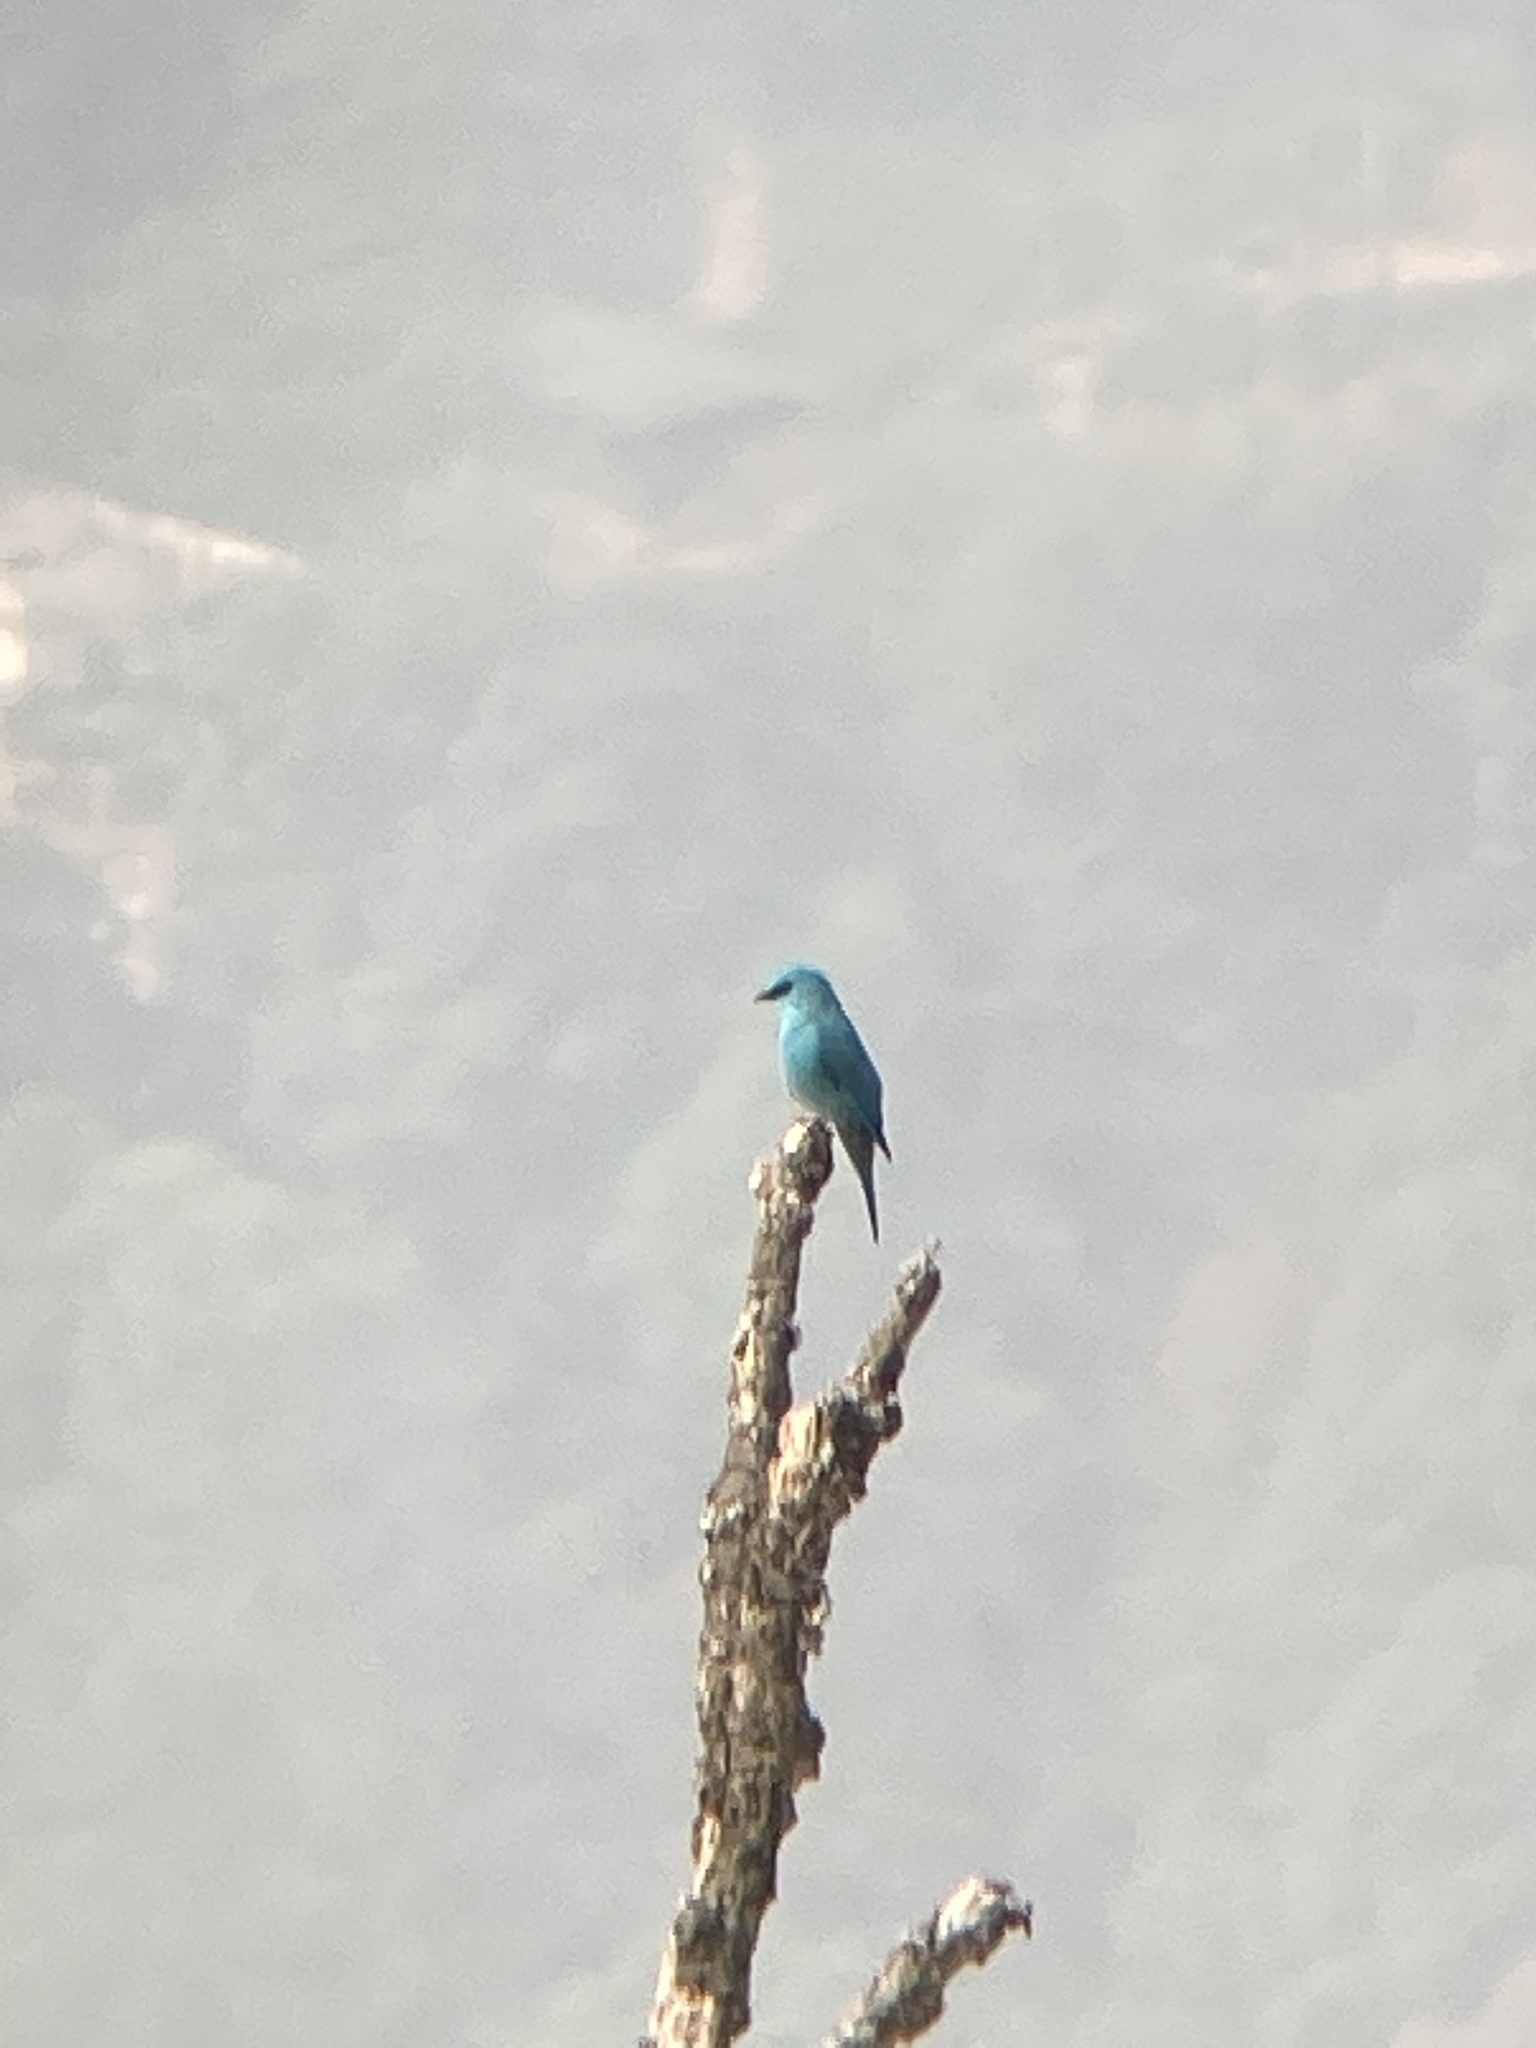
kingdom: Animalia
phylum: Chordata
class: Aves
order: Passeriformes
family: Muscicapidae
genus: Eumyias
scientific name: Eumyias thalassinus
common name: Verditer flycatcher
